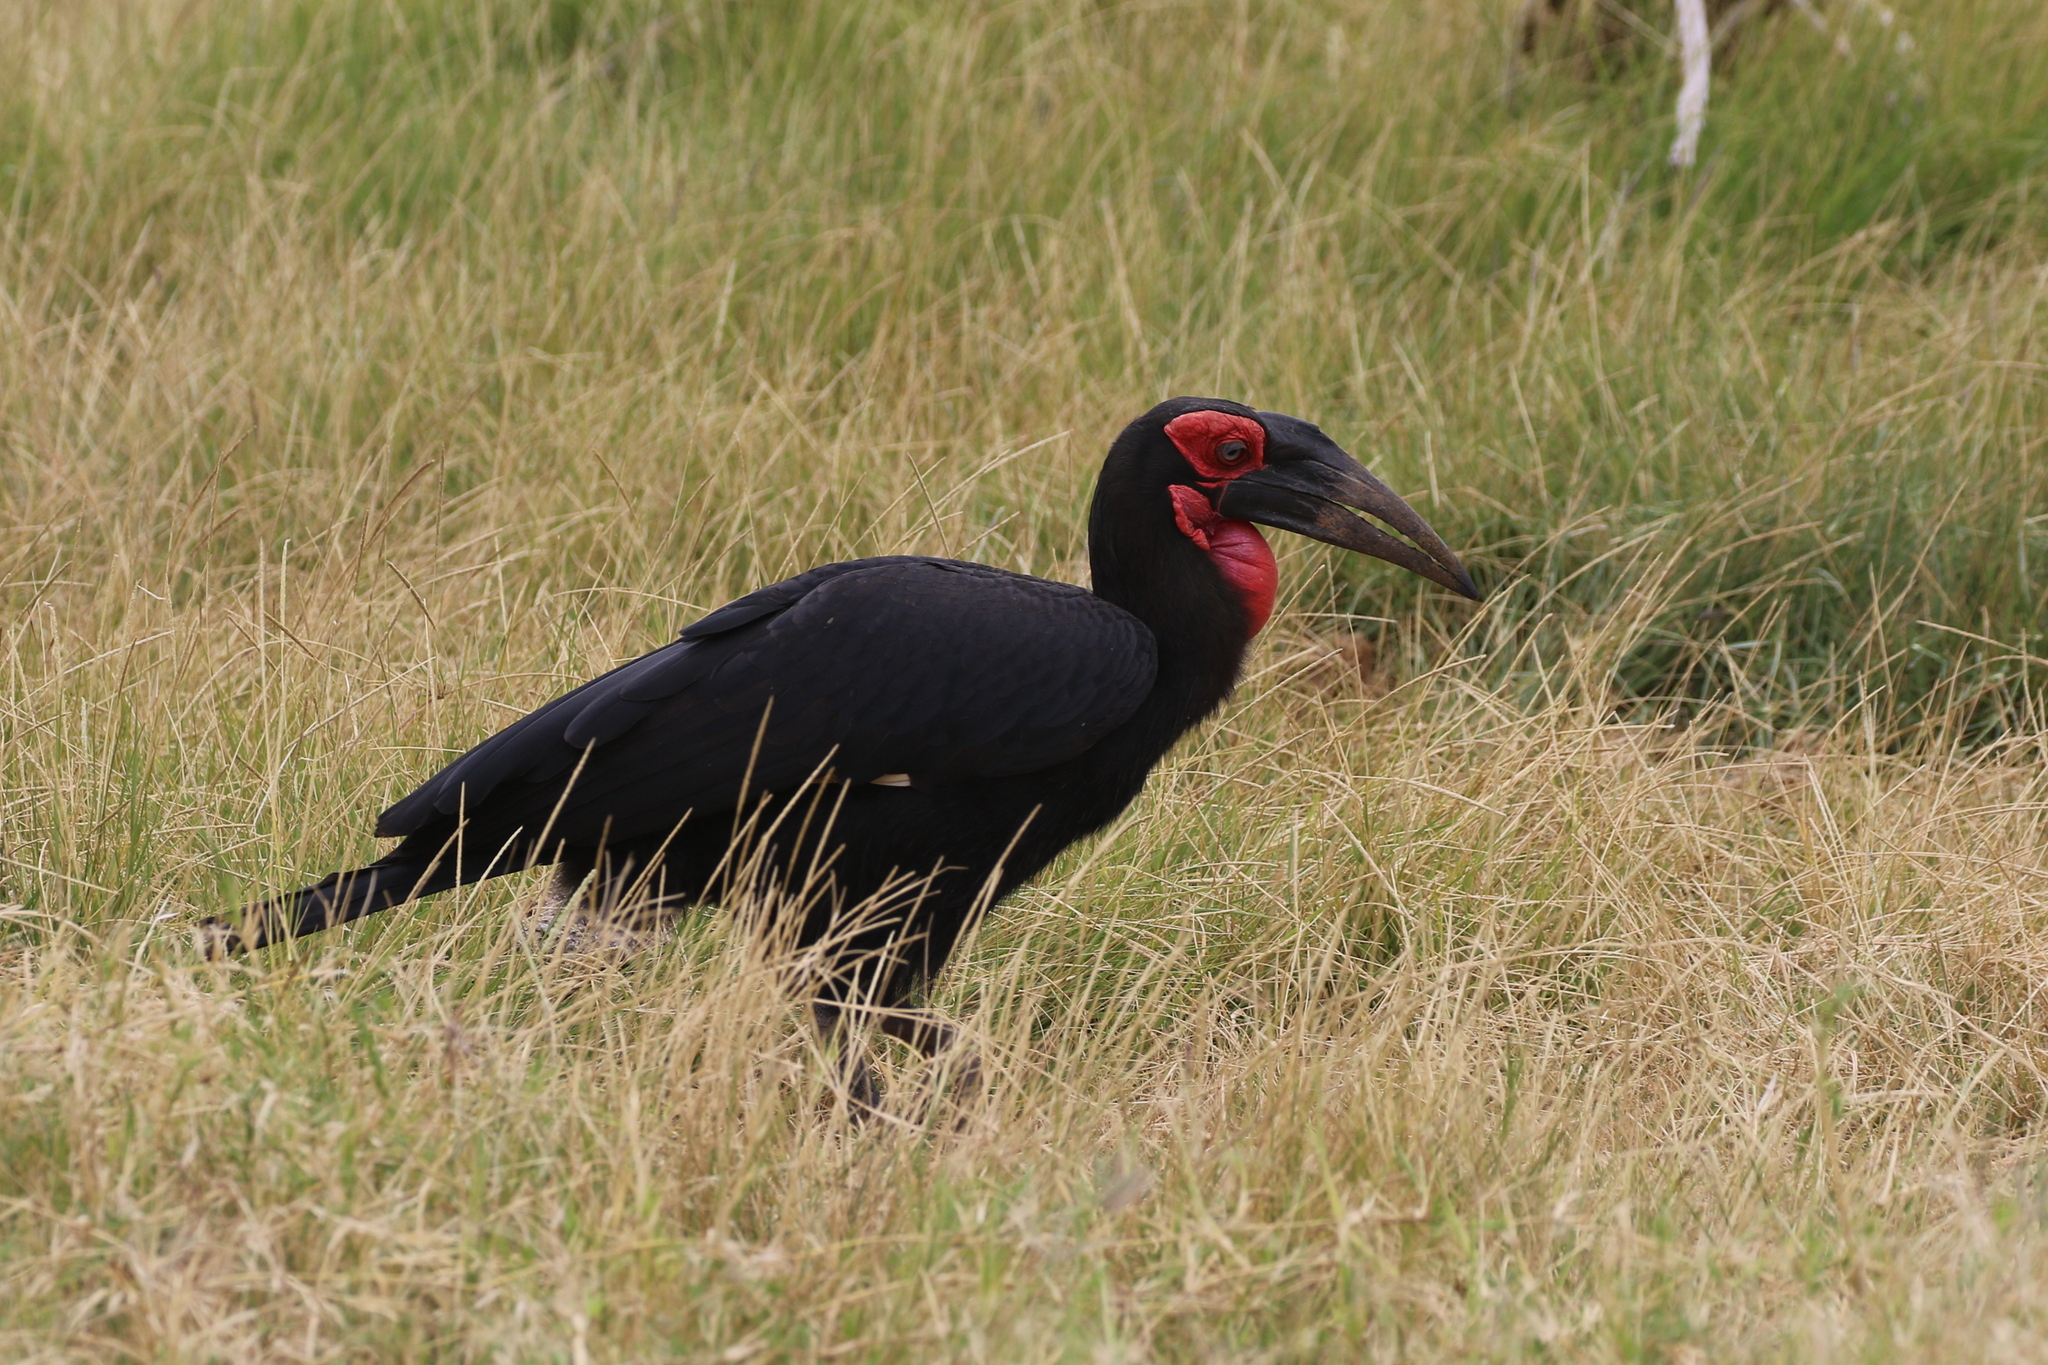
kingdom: Animalia
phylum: Chordata
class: Aves
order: Bucerotiformes
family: Bucorvidae
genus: Bucorvus
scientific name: Bucorvus leadbeateri
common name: Southern ground-hornbill
